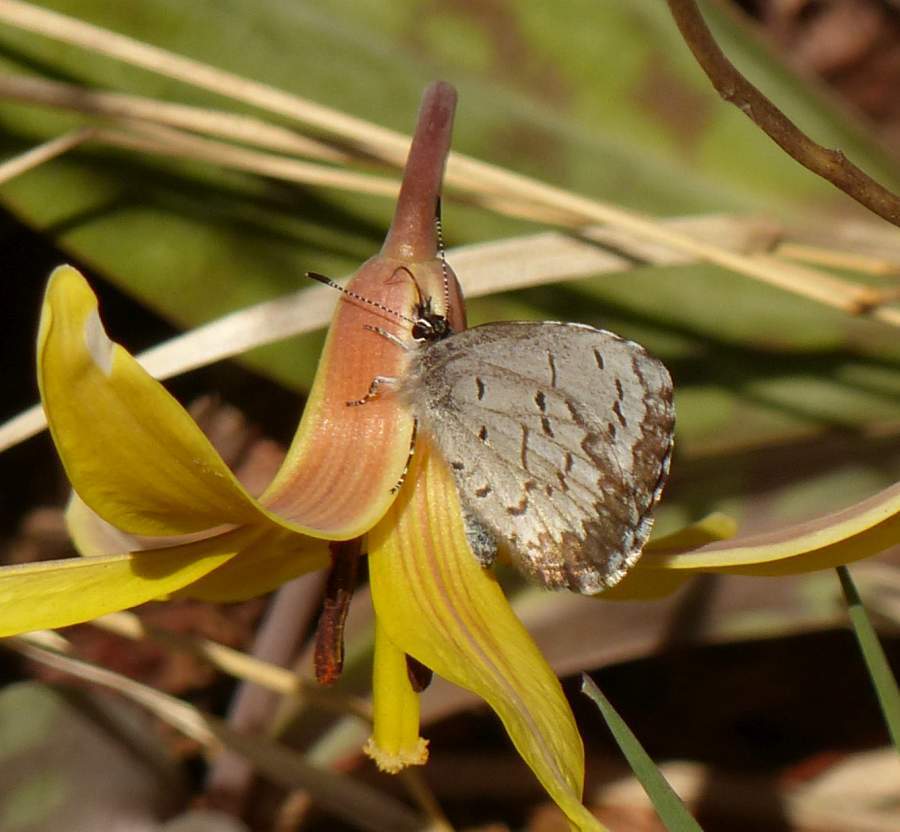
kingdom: Animalia
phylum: Arthropoda
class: Insecta
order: Lepidoptera
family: Lycaenidae
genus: Celastrina
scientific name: Celastrina lucia
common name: Lucia azure
